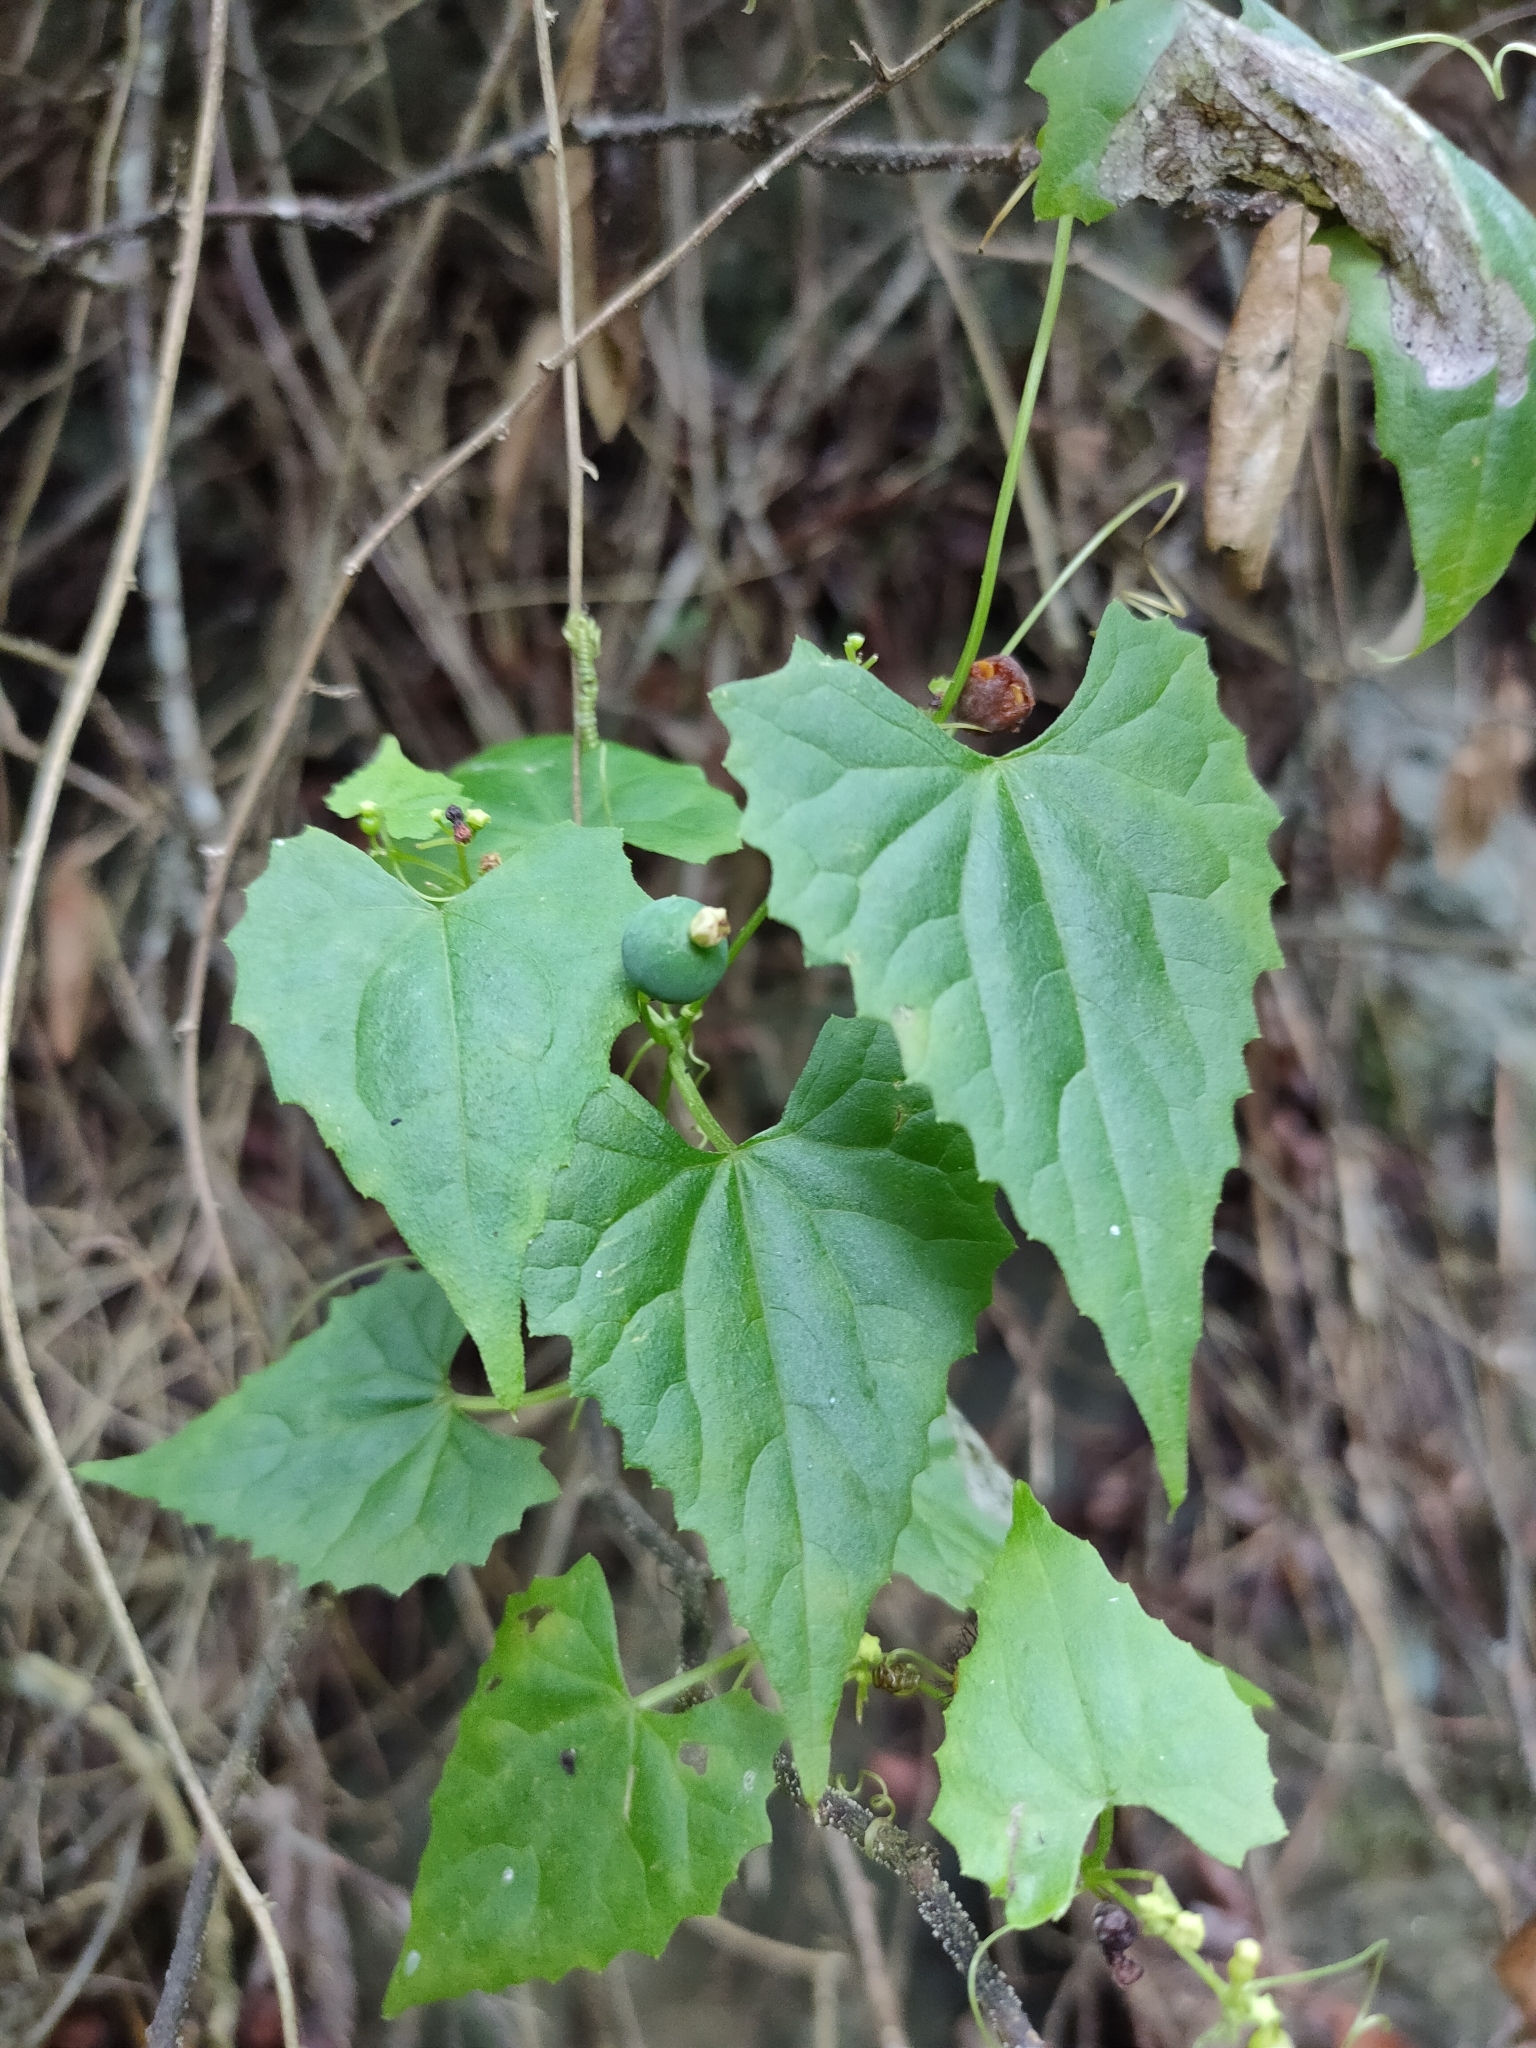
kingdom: Plantae
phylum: Tracheophyta
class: Magnoliopsida
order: Cucurbitales
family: Cucurbitaceae
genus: Zehneria
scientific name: Zehneria cunninghamii
